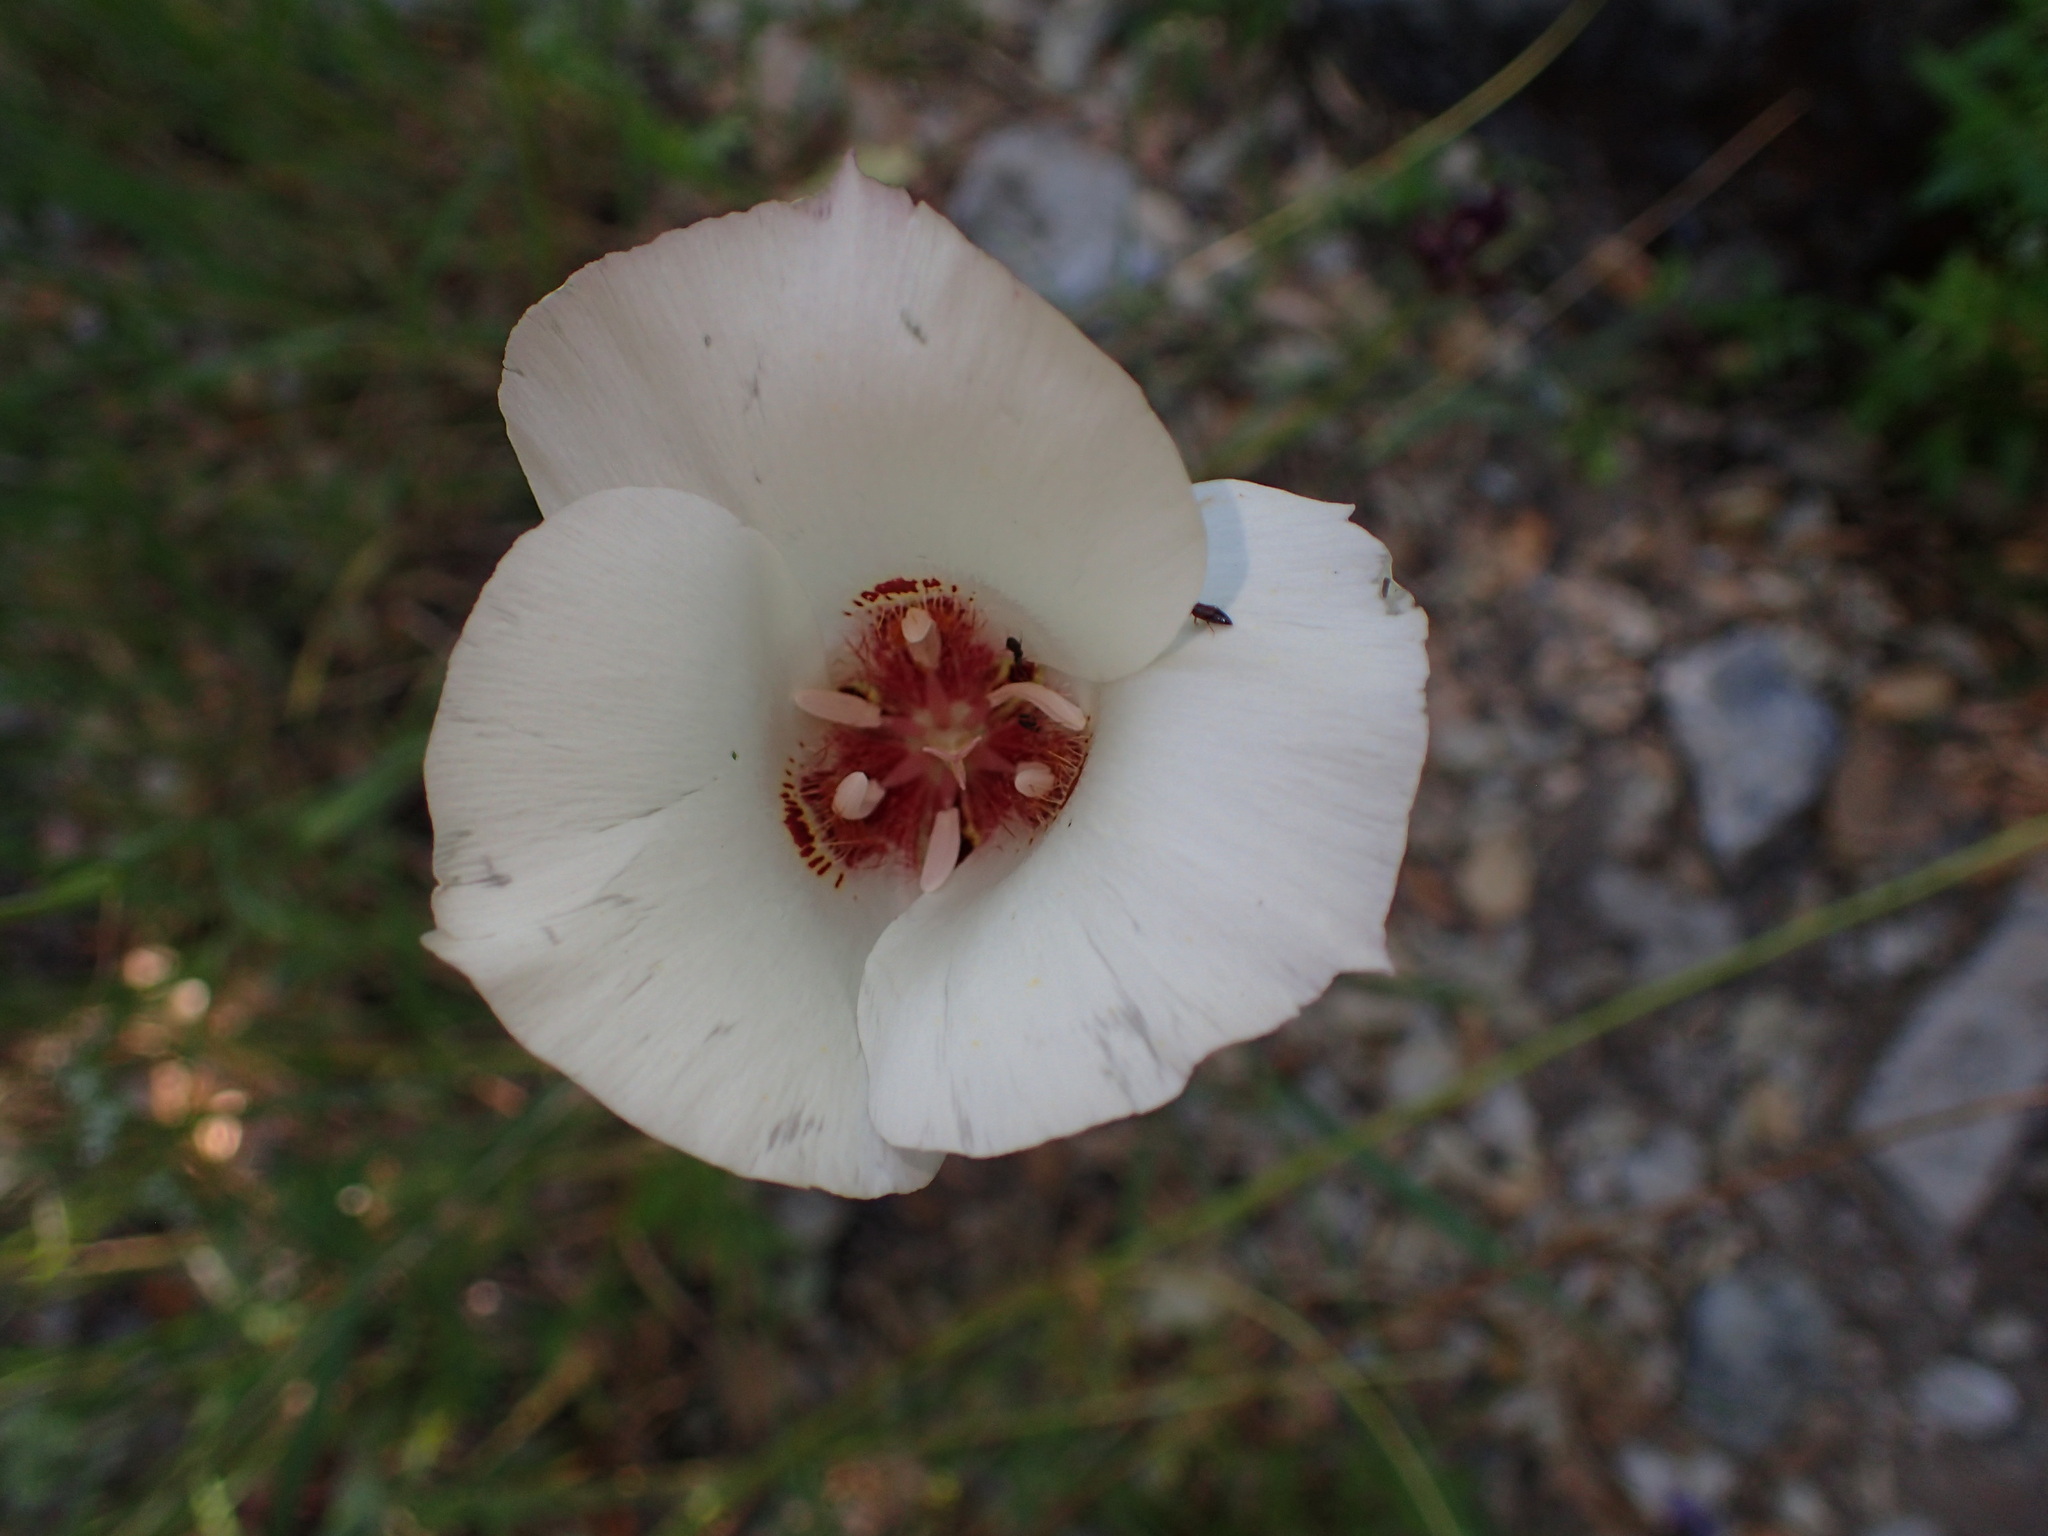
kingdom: Plantae
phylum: Tracheophyta
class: Liliopsida
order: Liliales
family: Liliaceae
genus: Calochortus
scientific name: Calochortus venustus
